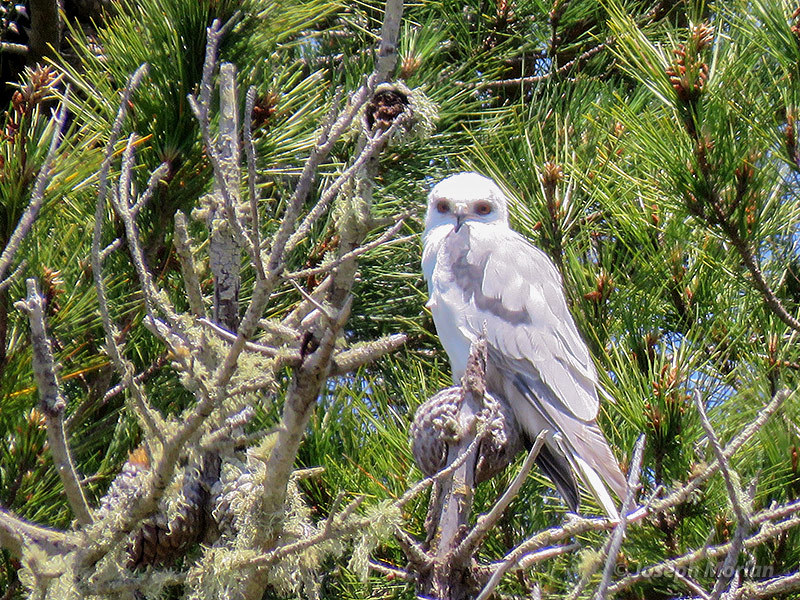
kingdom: Animalia
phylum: Chordata
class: Aves
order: Accipitriformes
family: Accipitridae
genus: Elanus
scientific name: Elanus leucurus
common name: White-tailed kite
